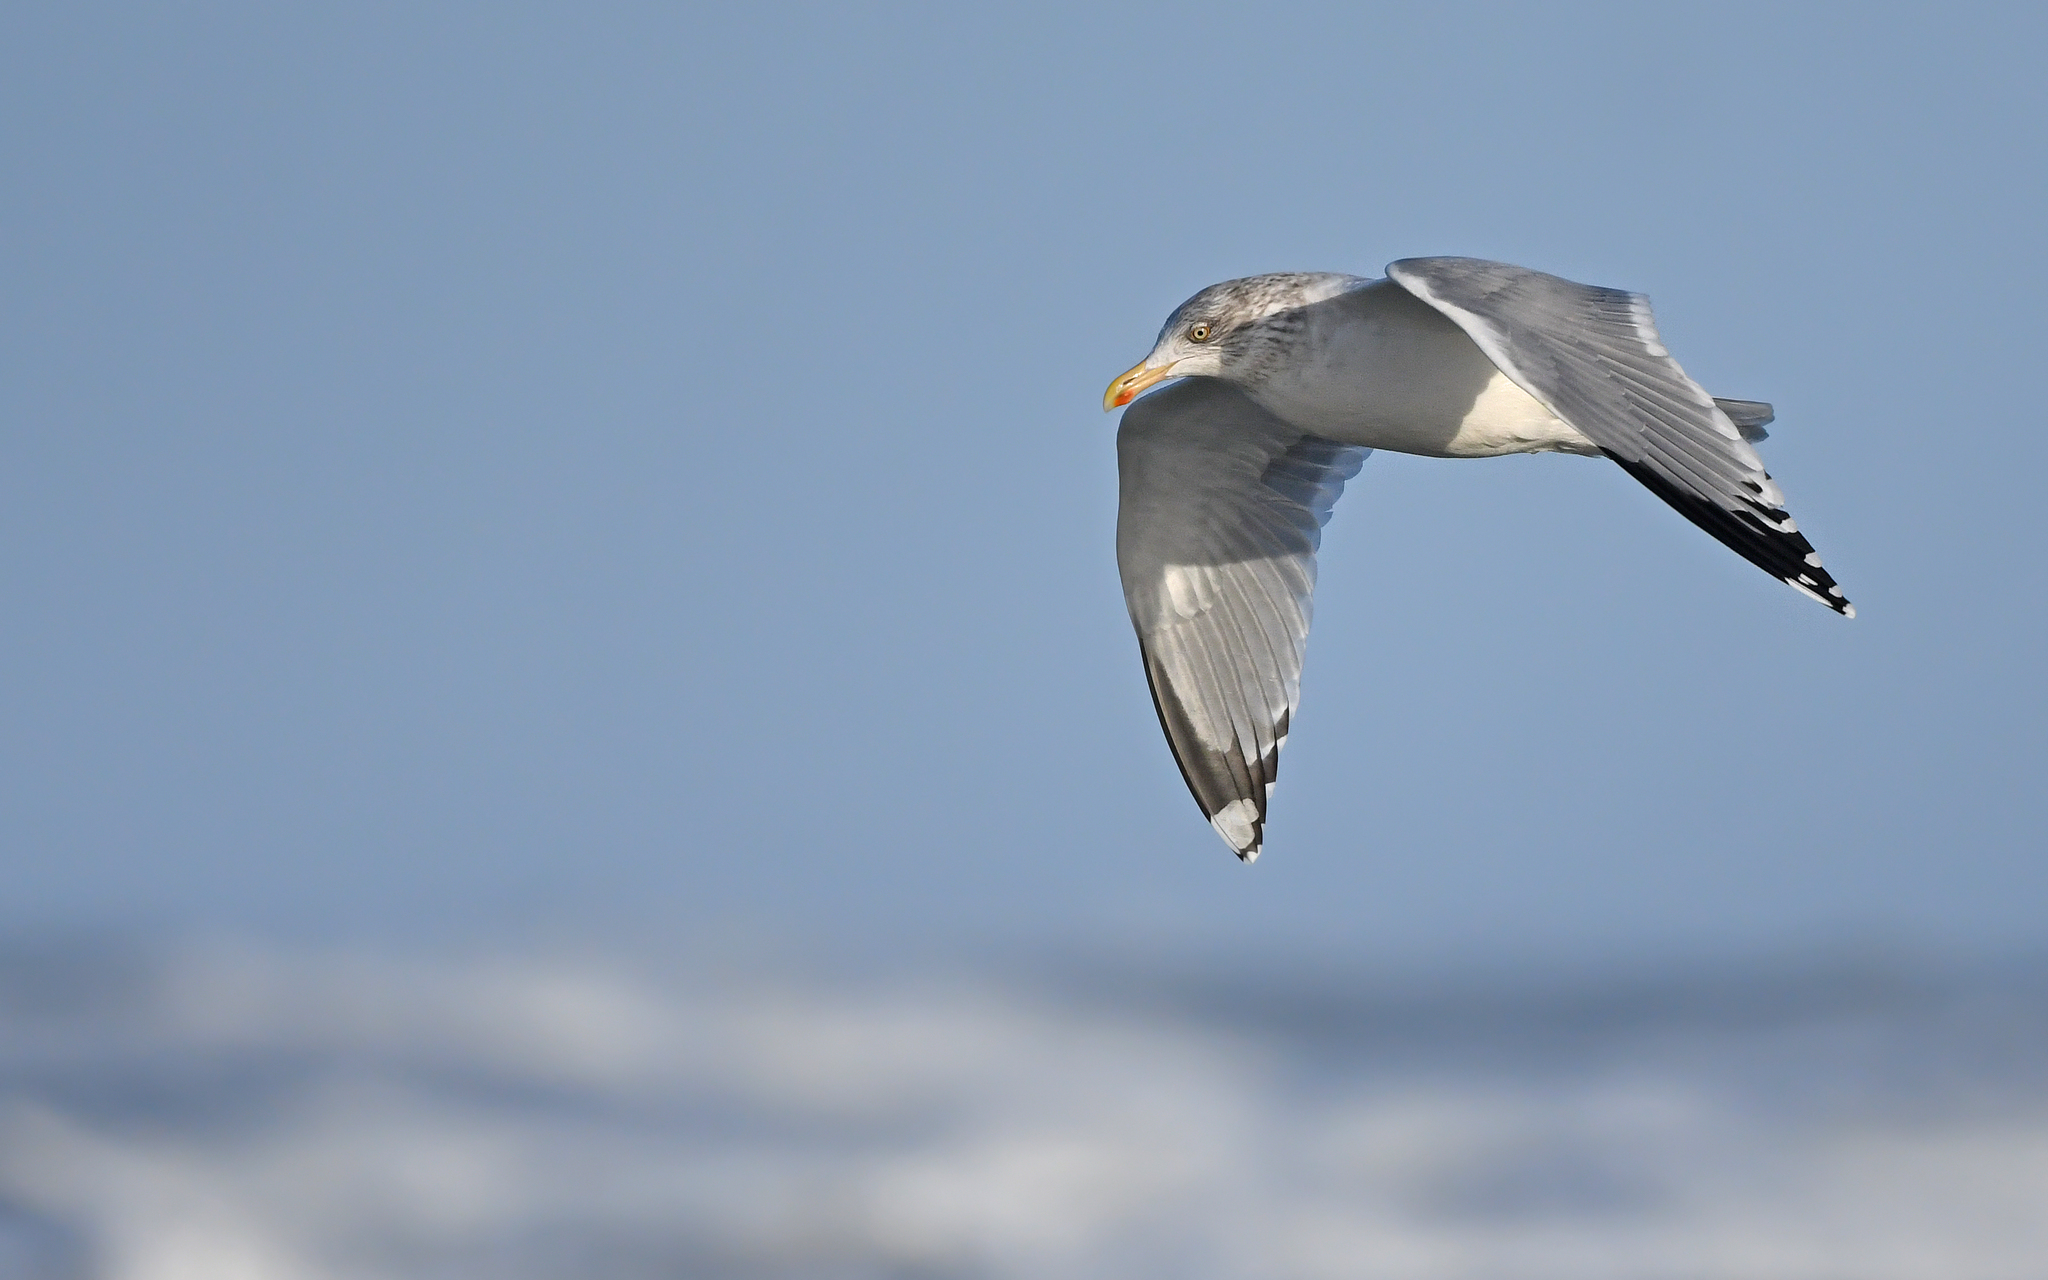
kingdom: Animalia
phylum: Chordata
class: Aves
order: Charadriiformes
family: Laridae
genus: Larus
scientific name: Larus argentatus
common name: Herring gull
